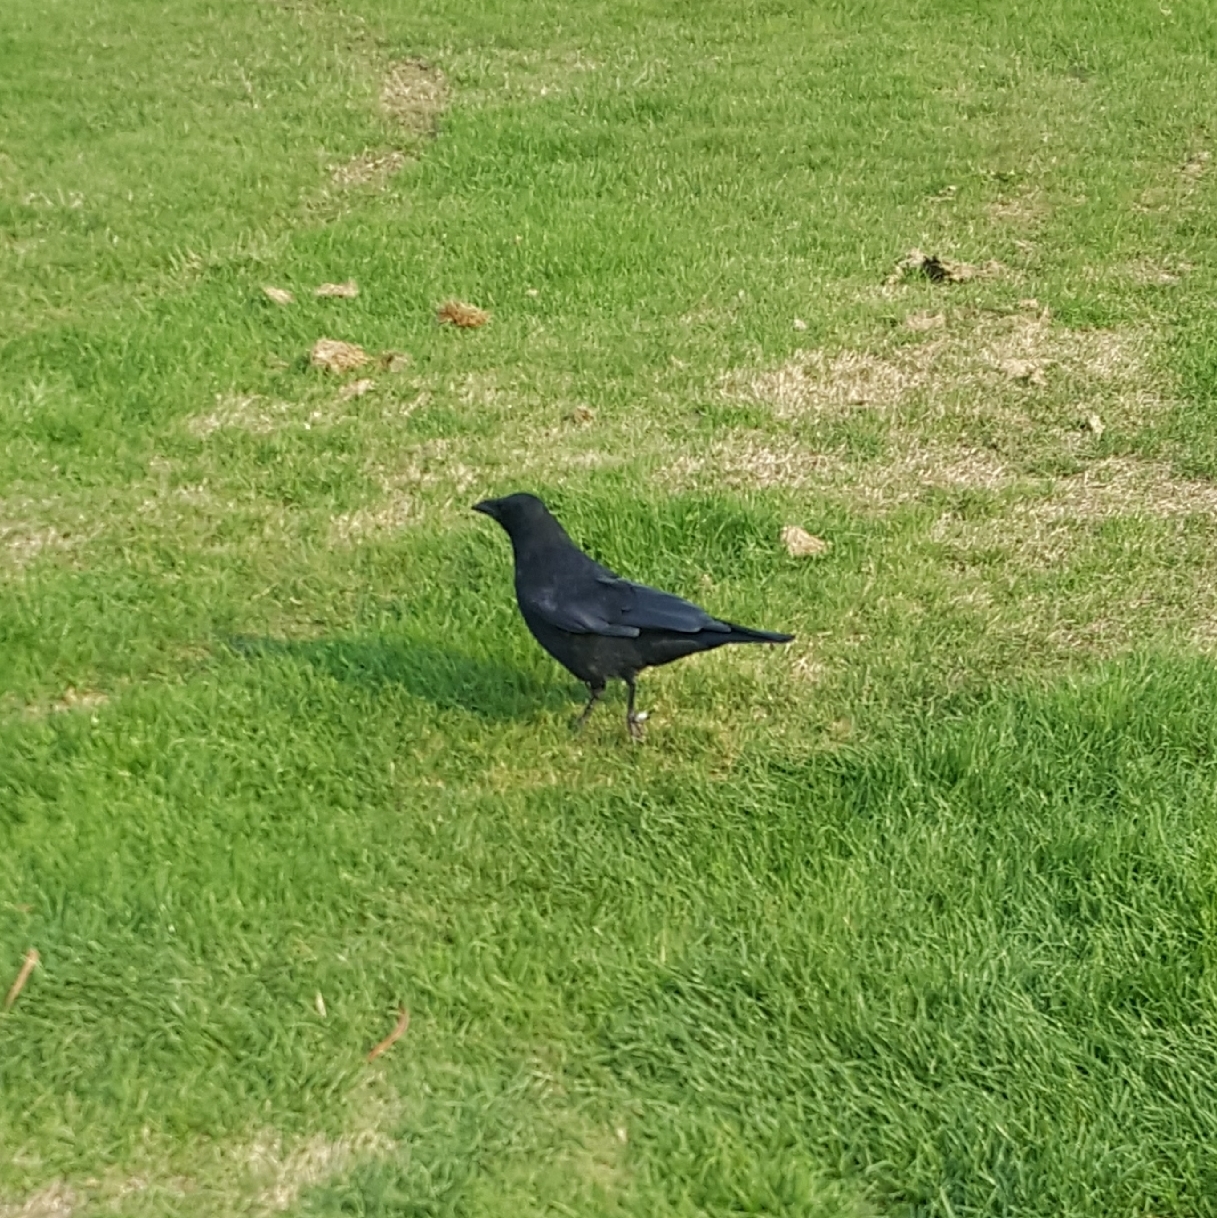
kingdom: Animalia
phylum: Chordata
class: Aves
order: Passeriformes
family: Corvidae
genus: Corvus
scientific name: Corvus brachyrhynchos
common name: American crow
